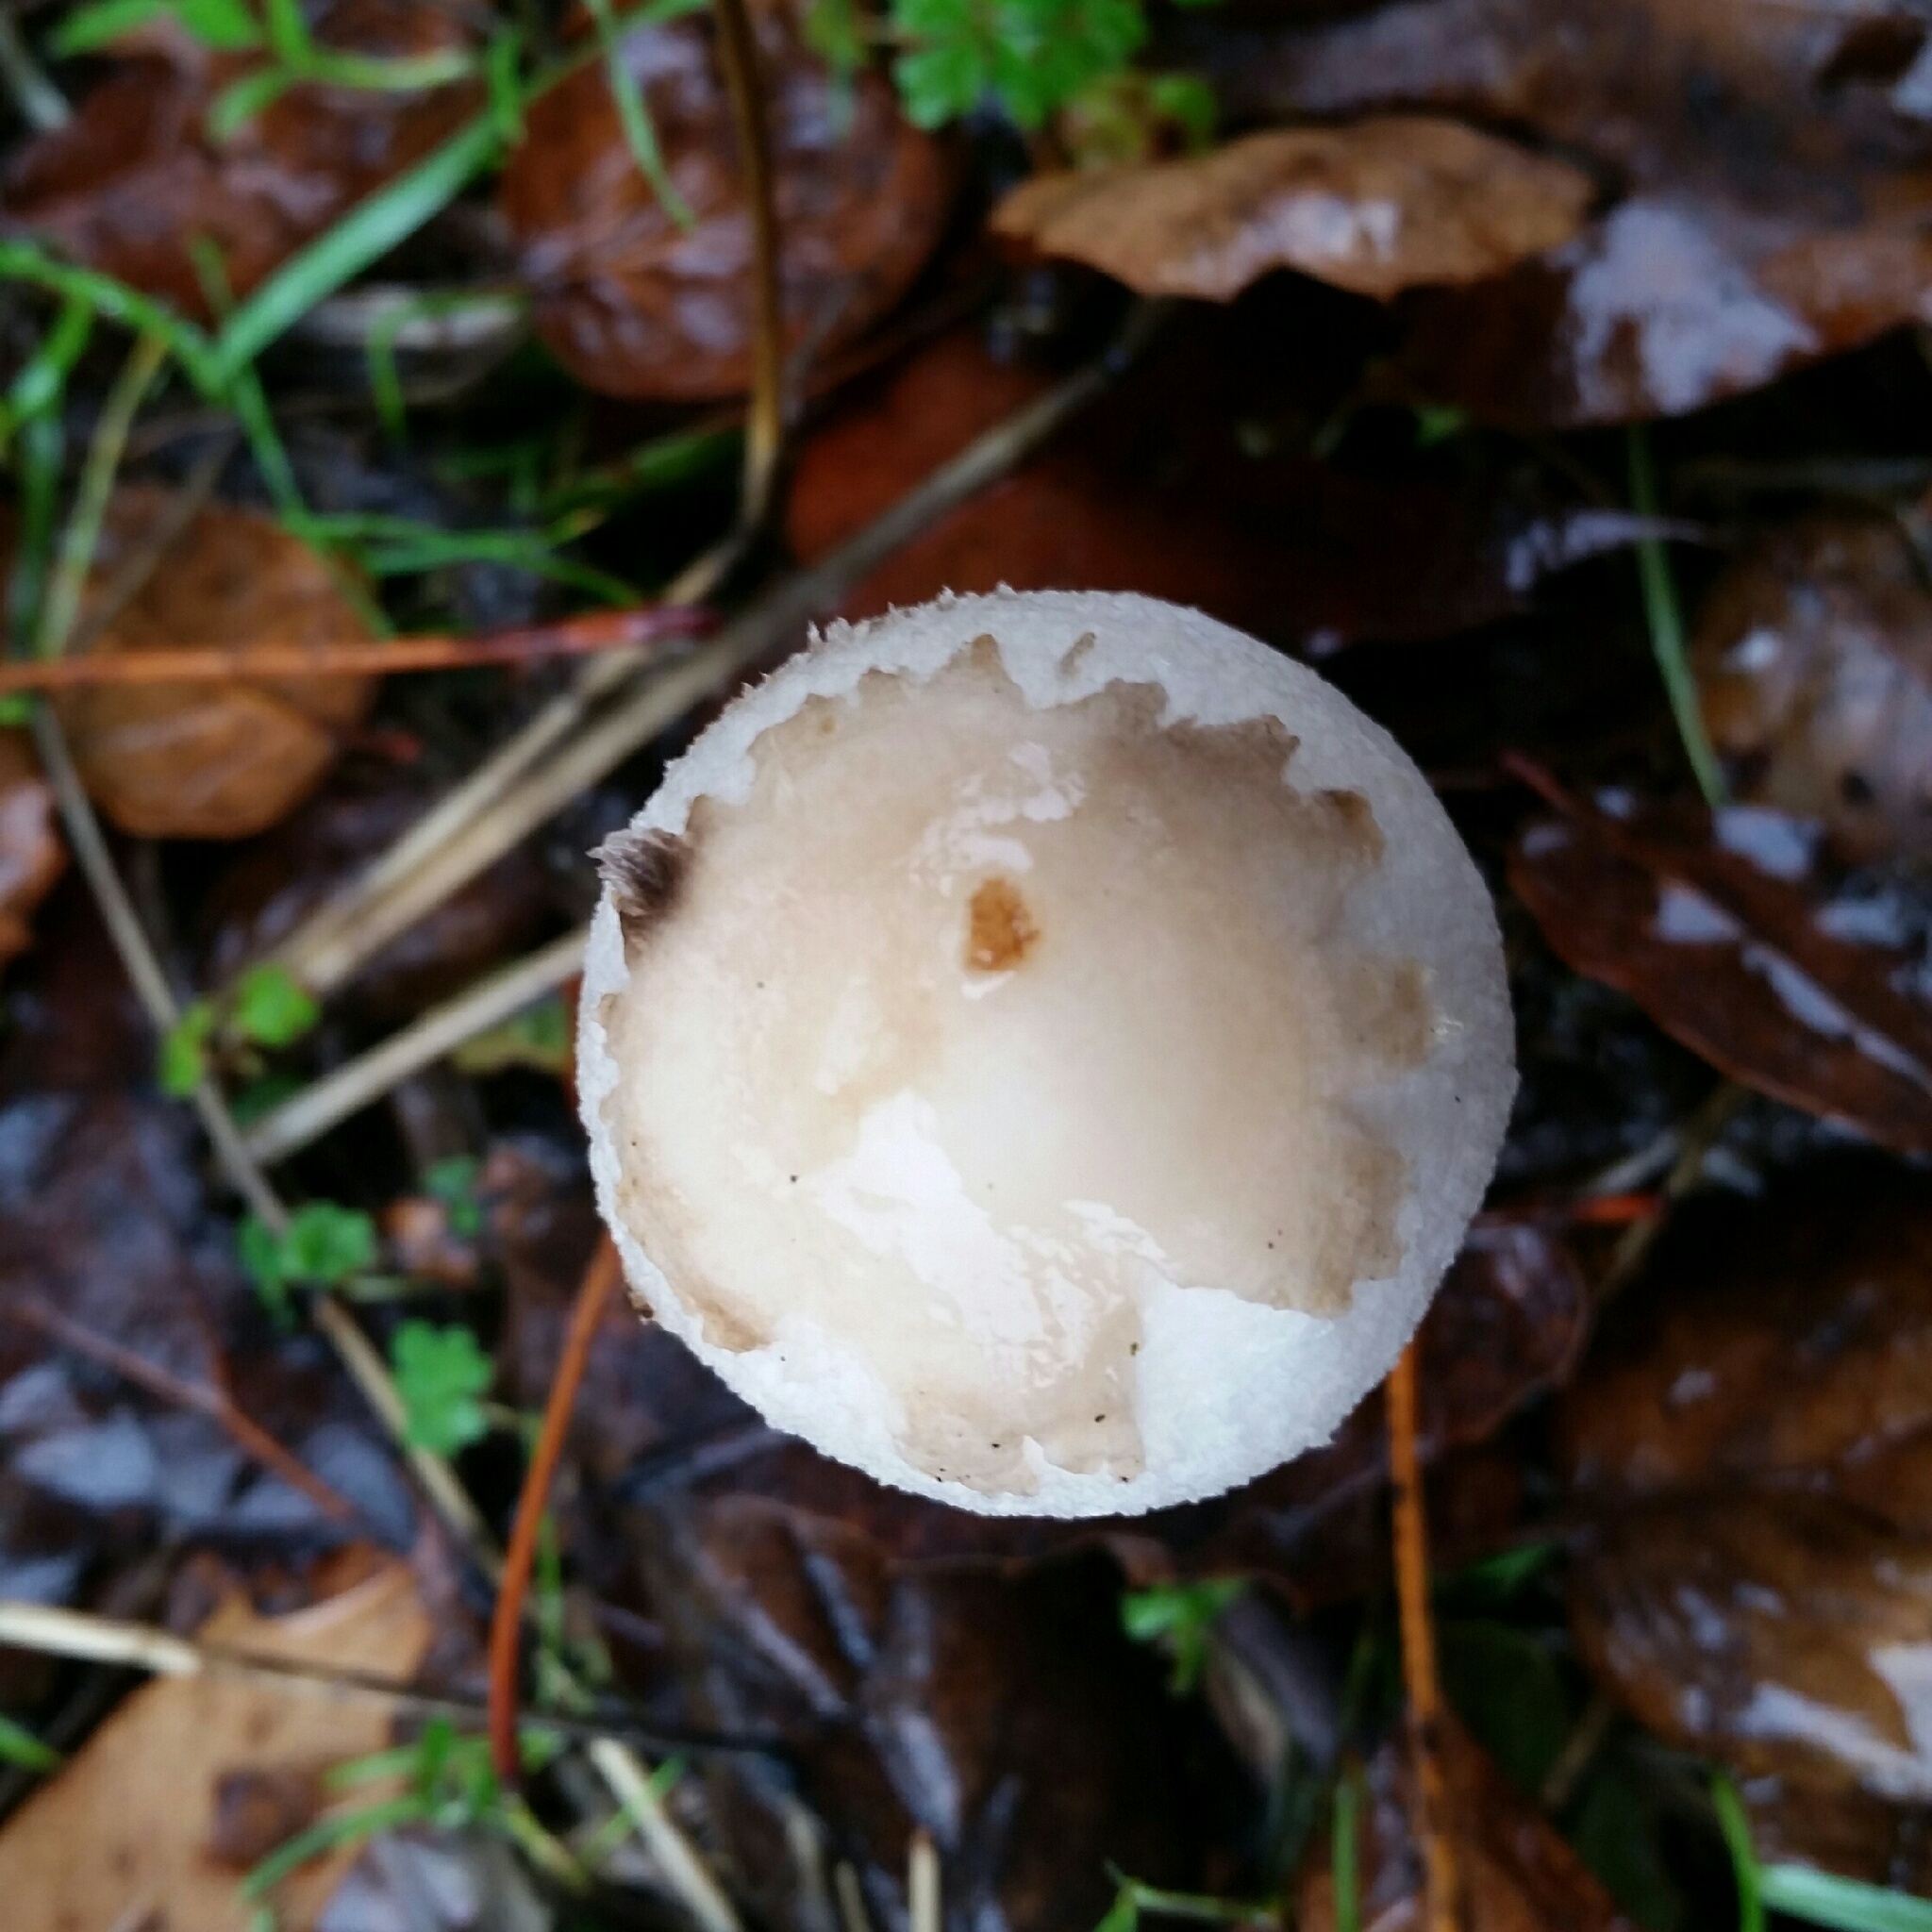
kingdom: Fungi
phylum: Basidiomycota
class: Agaricomycetes
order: Agaricales
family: Agaricaceae
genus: Coprinus
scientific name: Coprinus comatus
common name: Lawyer's wig
